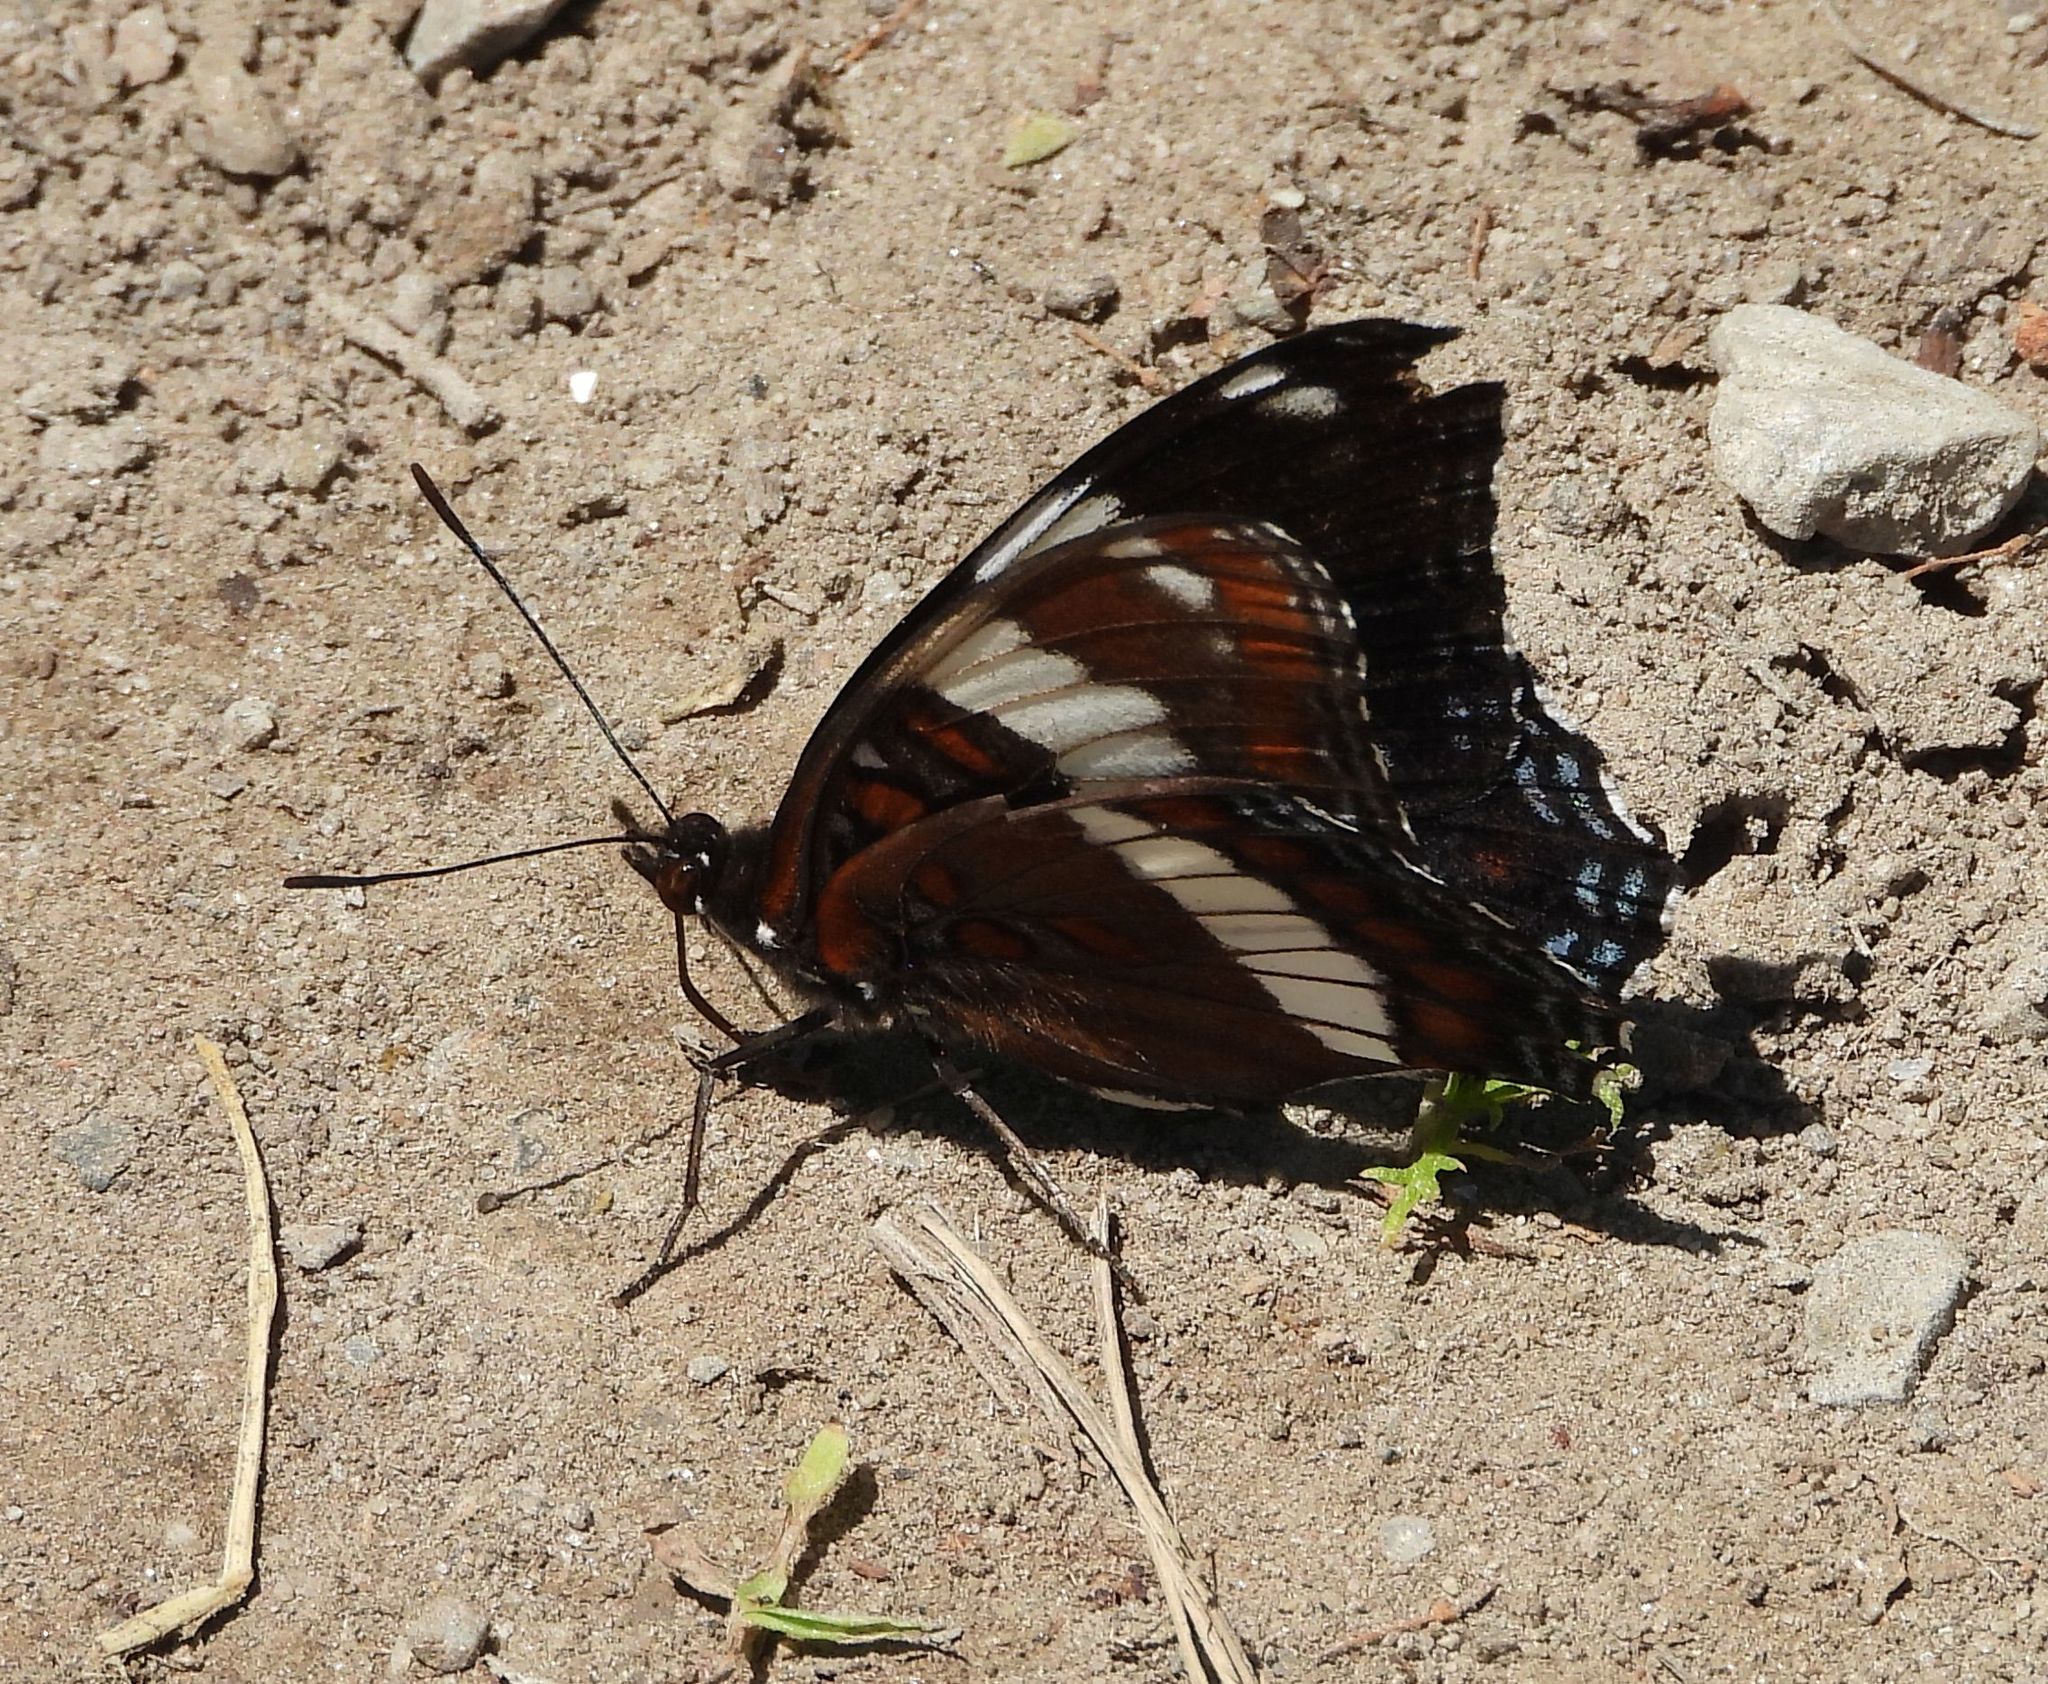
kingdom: Animalia
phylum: Arthropoda
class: Insecta
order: Lepidoptera
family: Nymphalidae
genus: Limenitis
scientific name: Limenitis arthemis
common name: Red-spotted admiral
